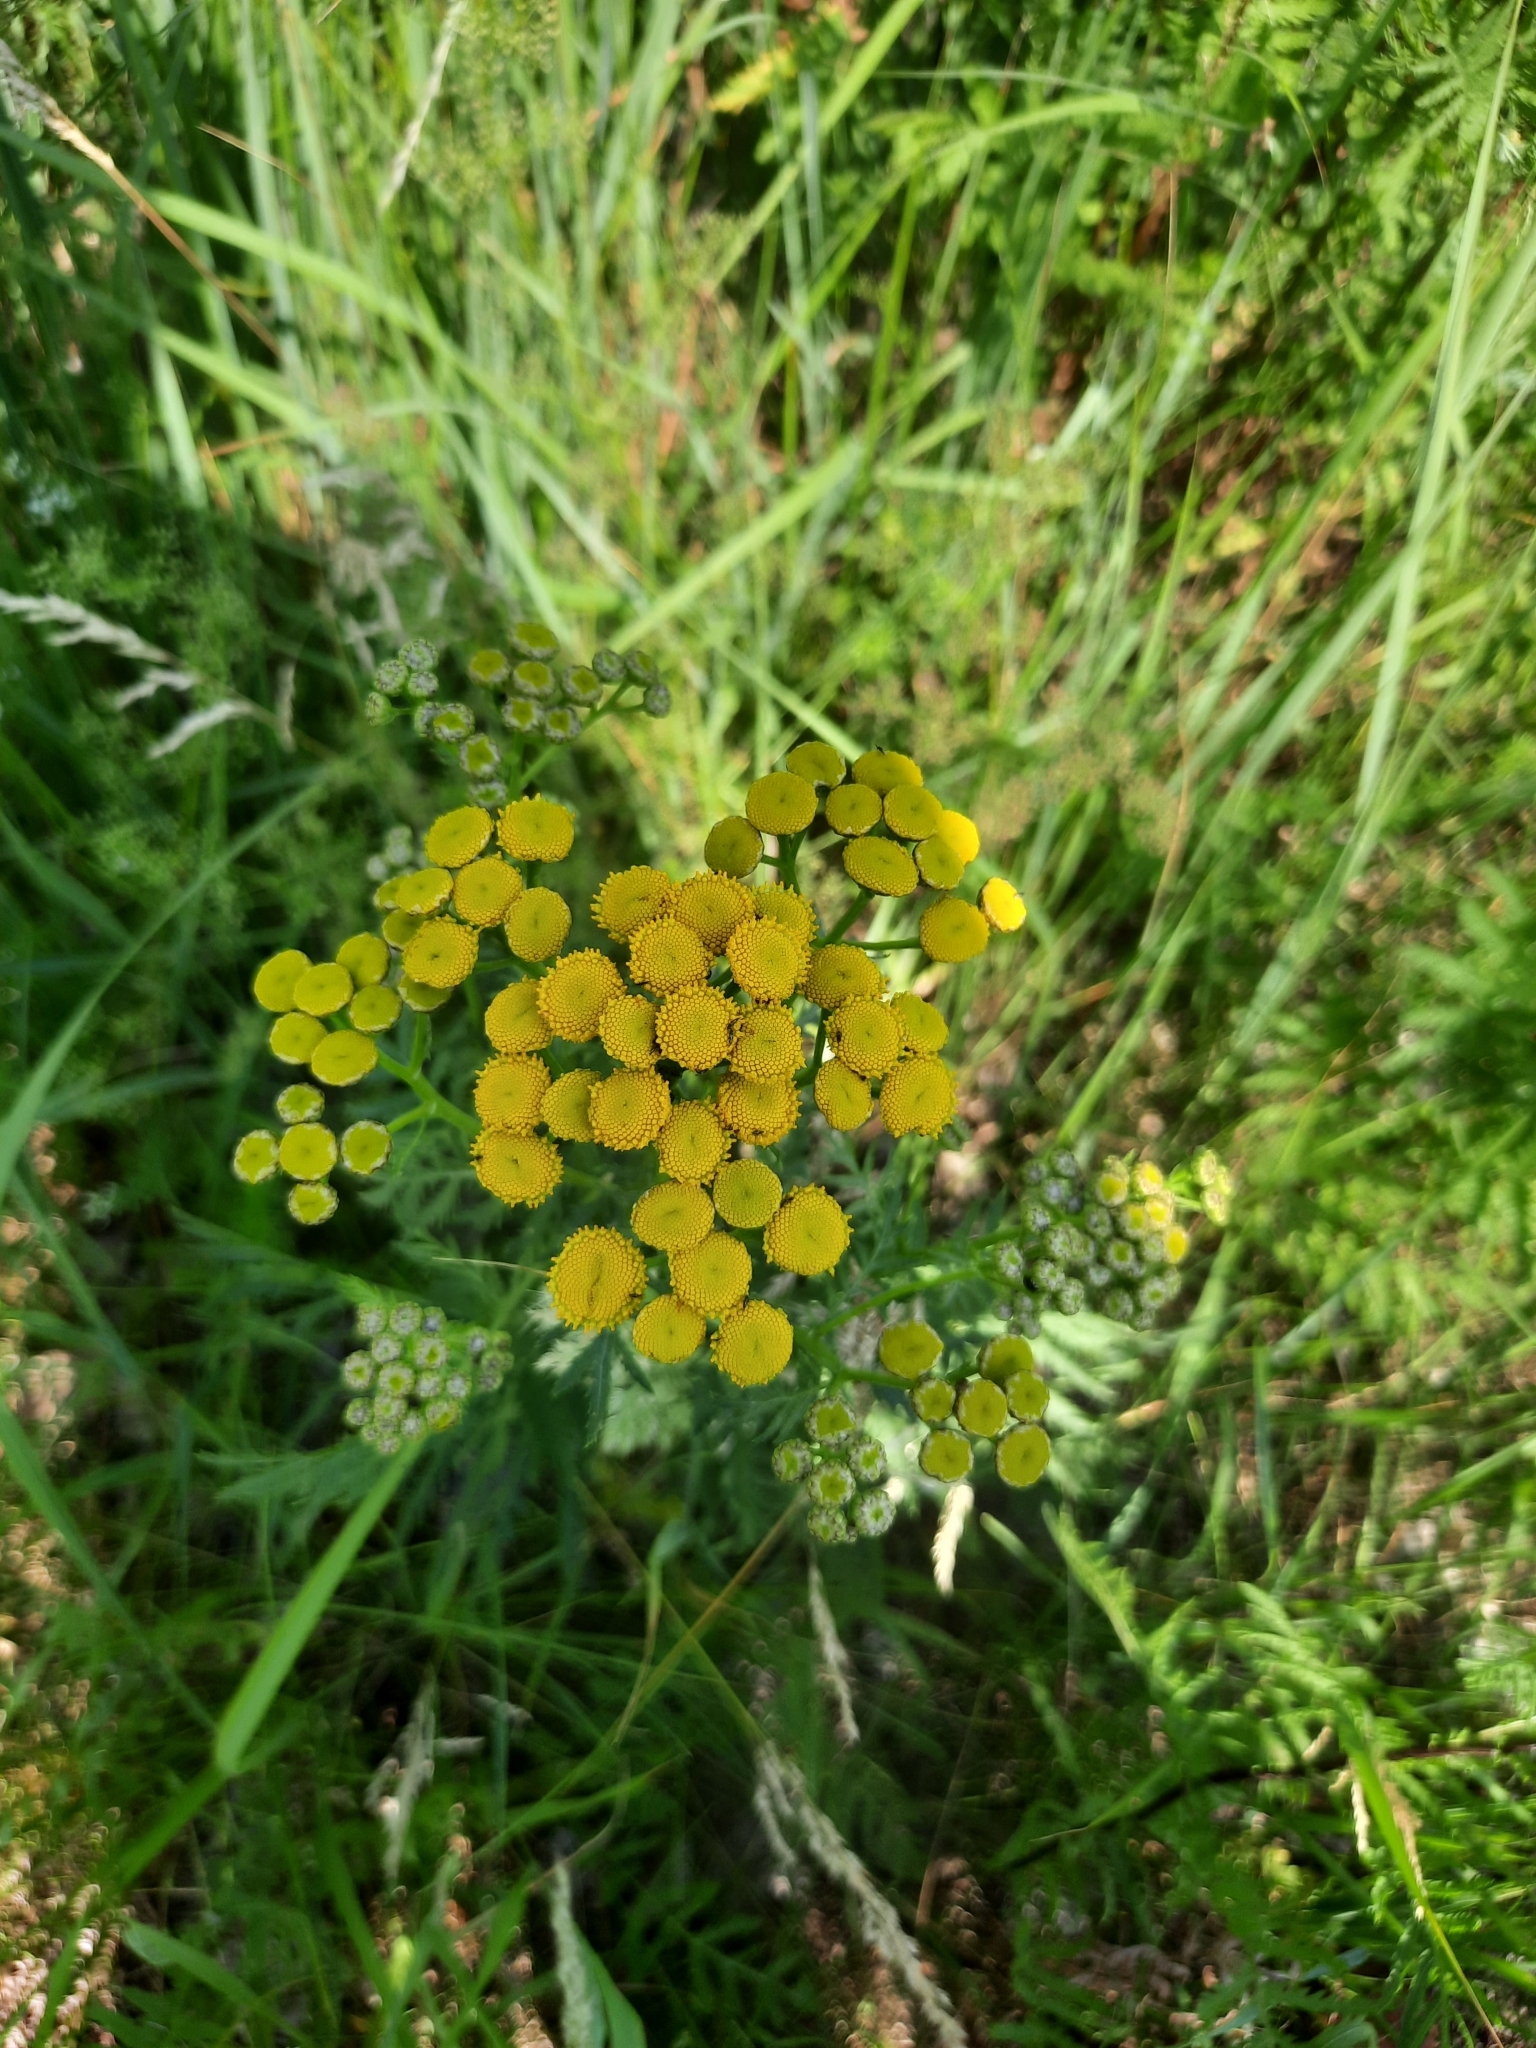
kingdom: Plantae
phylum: Tracheophyta
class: Magnoliopsida
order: Asterales
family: Asteraceae
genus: Tanacetum
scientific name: Tanacetum vulgare
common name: Common tansy
